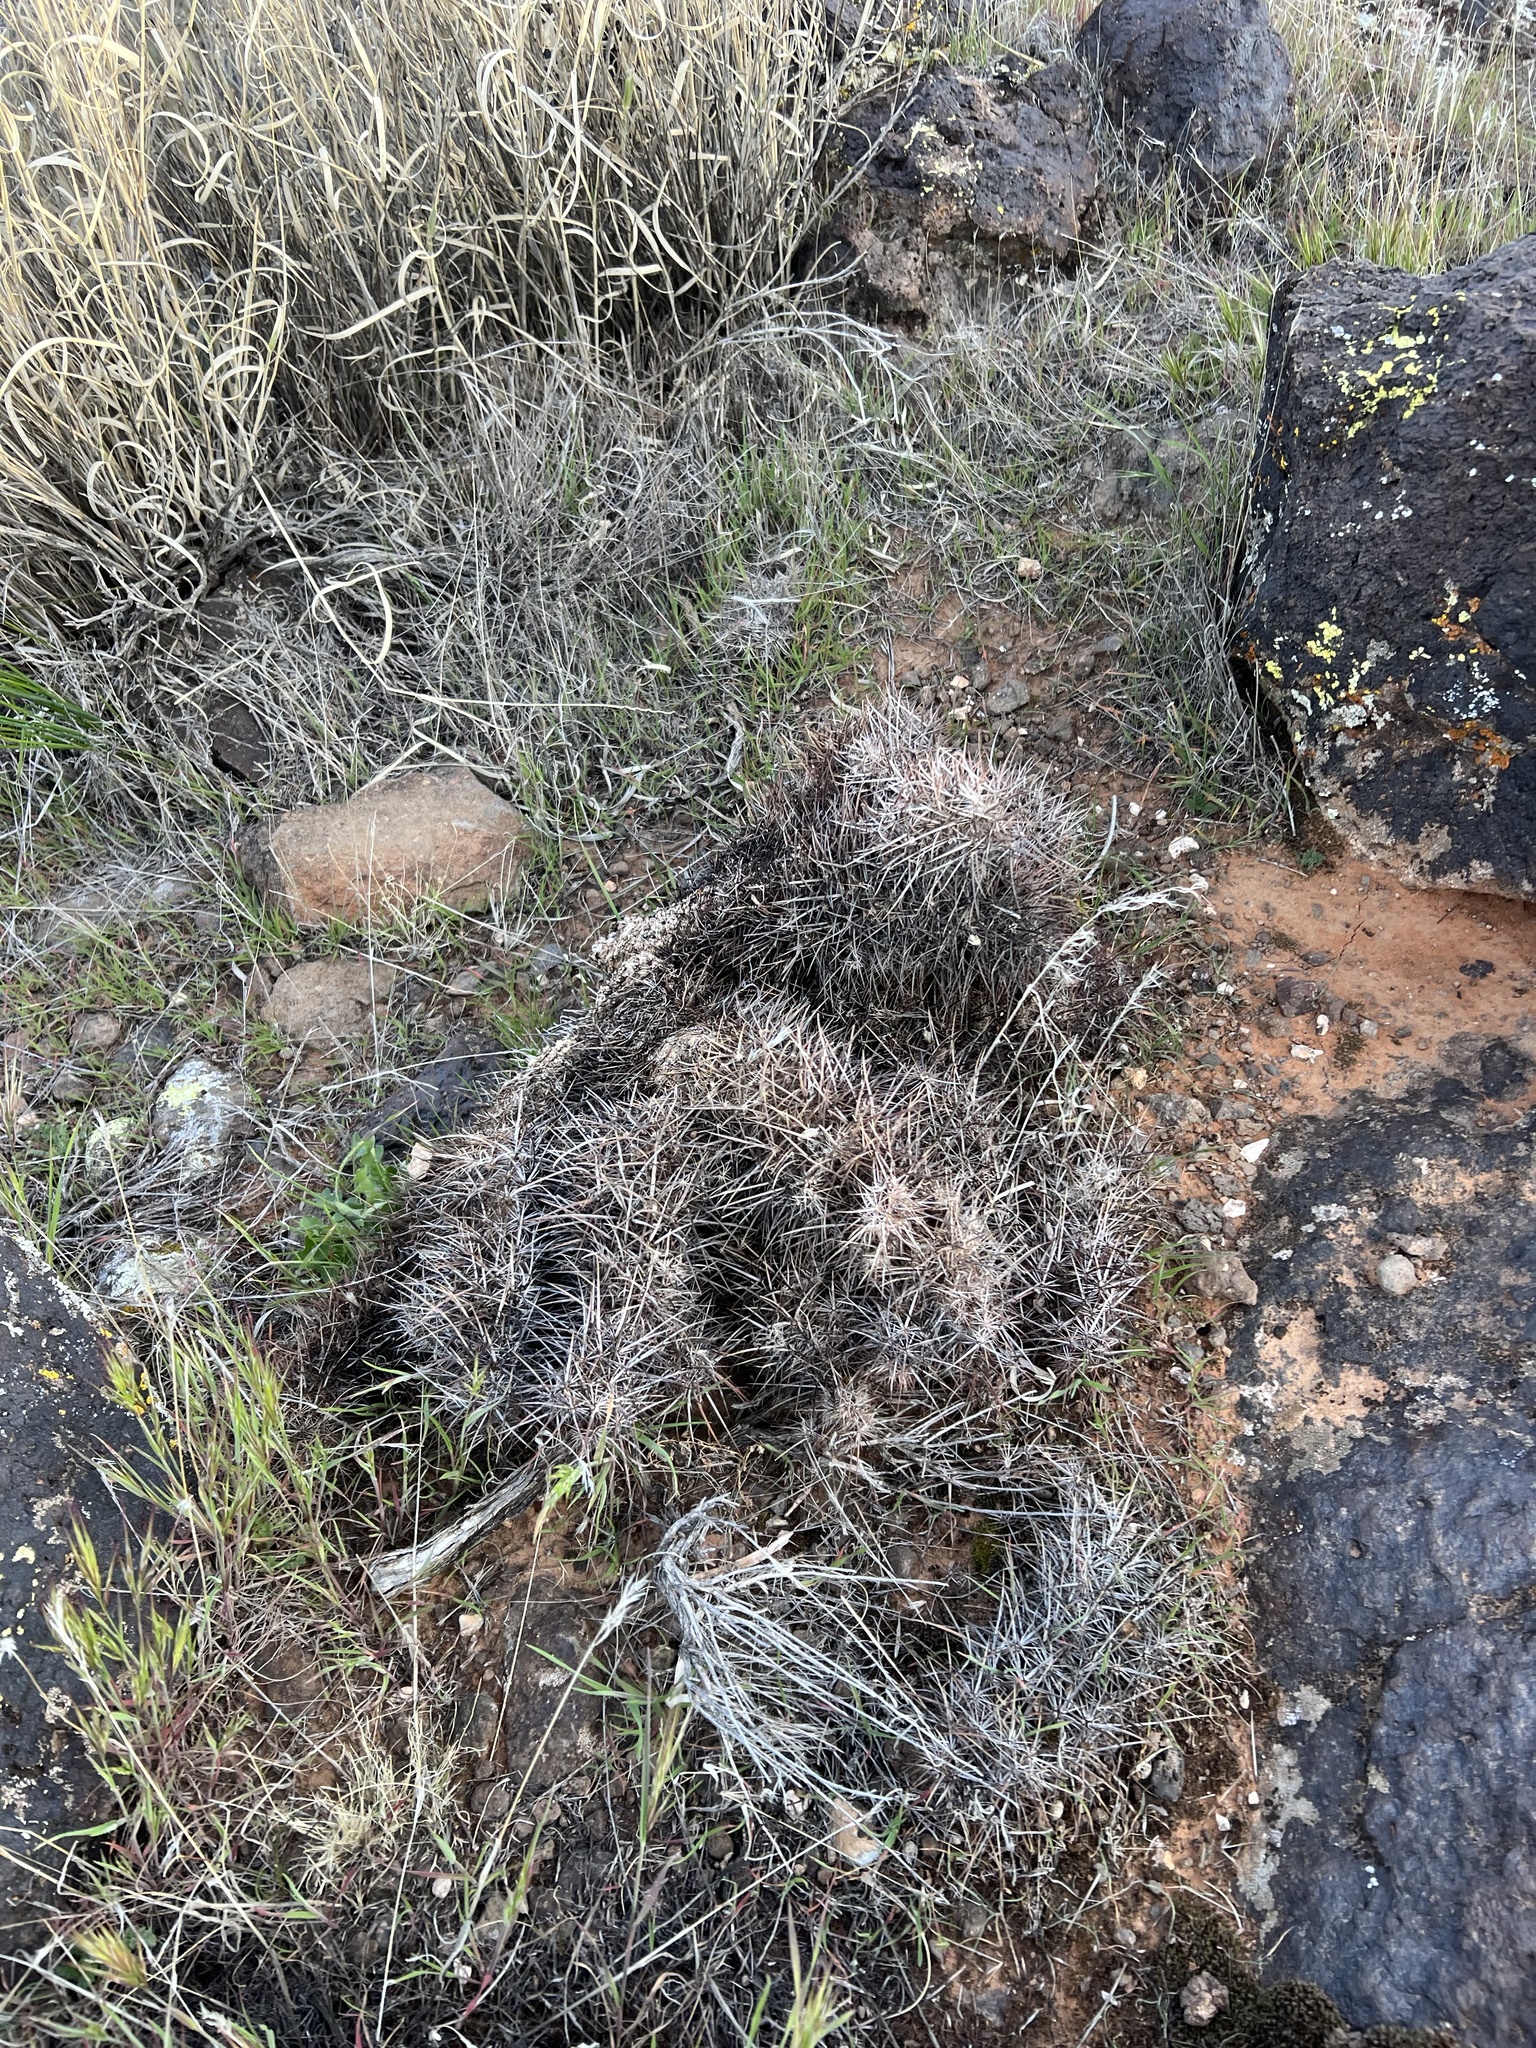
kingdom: Plantae
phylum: Tracheophyta
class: Magnoliopsida
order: Caryophyllales
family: Cactaceae
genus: Echinocereus
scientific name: Echinocereus relictus
